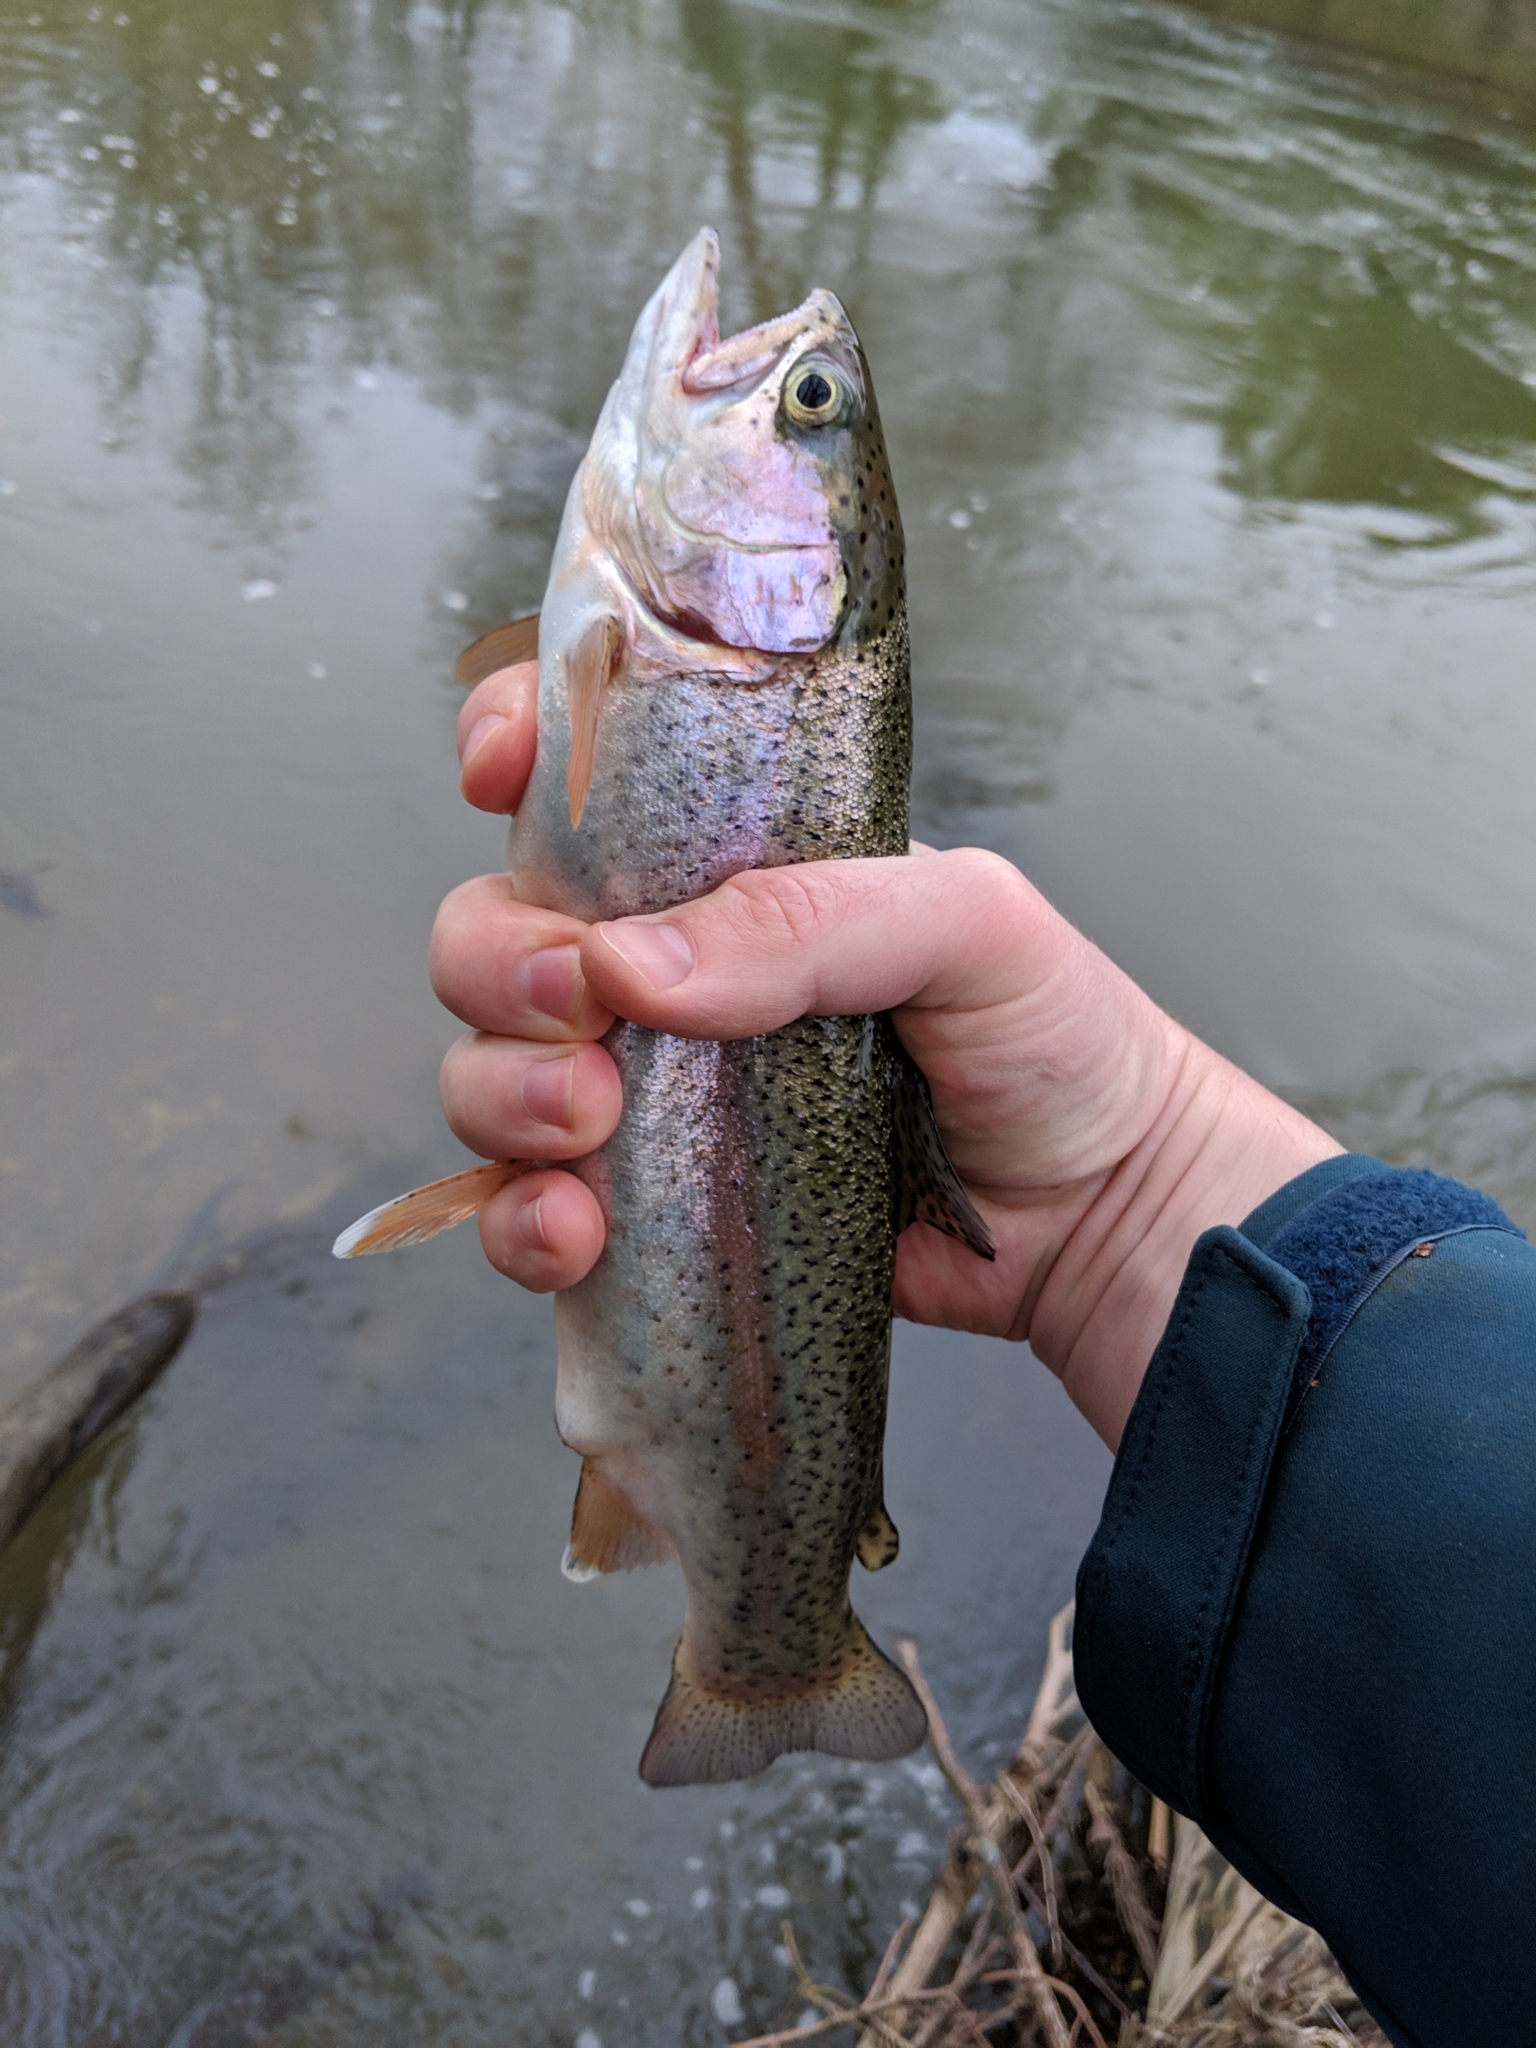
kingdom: Animalia
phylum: Chordata
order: Salmoniformes
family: Salmonidae
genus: Oncorhynchus
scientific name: Oncorhynchus mykiss
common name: Rainbow trout
